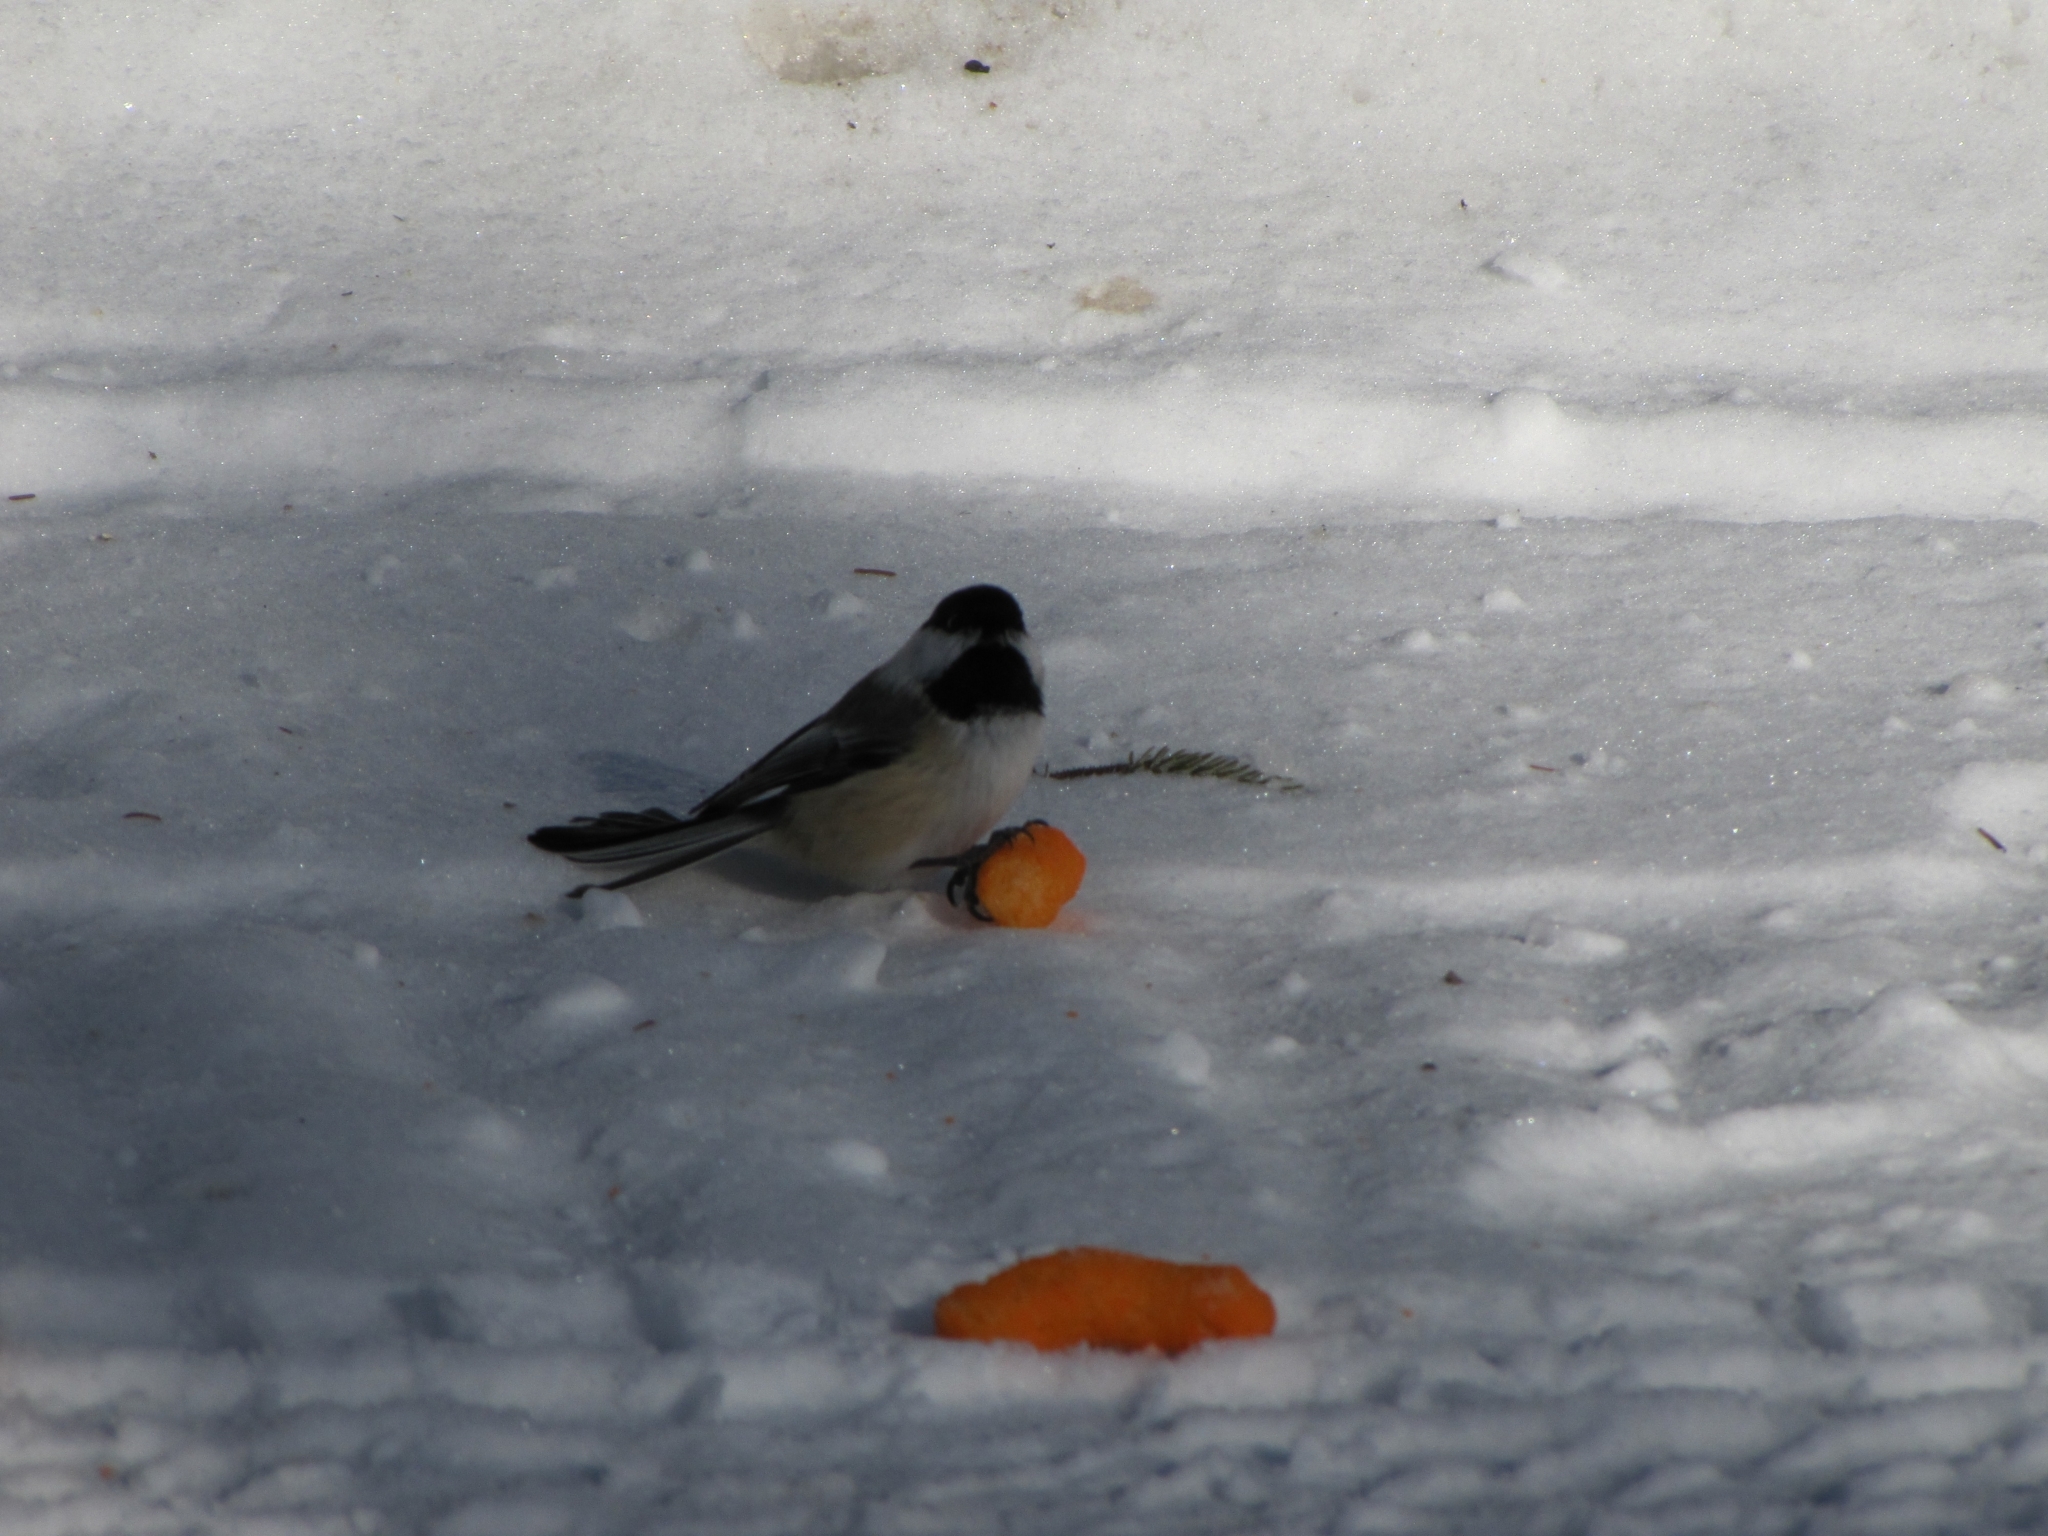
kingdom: Animalia
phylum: Chordata
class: Aves
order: Passeriformes
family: Paridae
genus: Poecile
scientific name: Poecile atricapillus
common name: Black-capped chickadee
